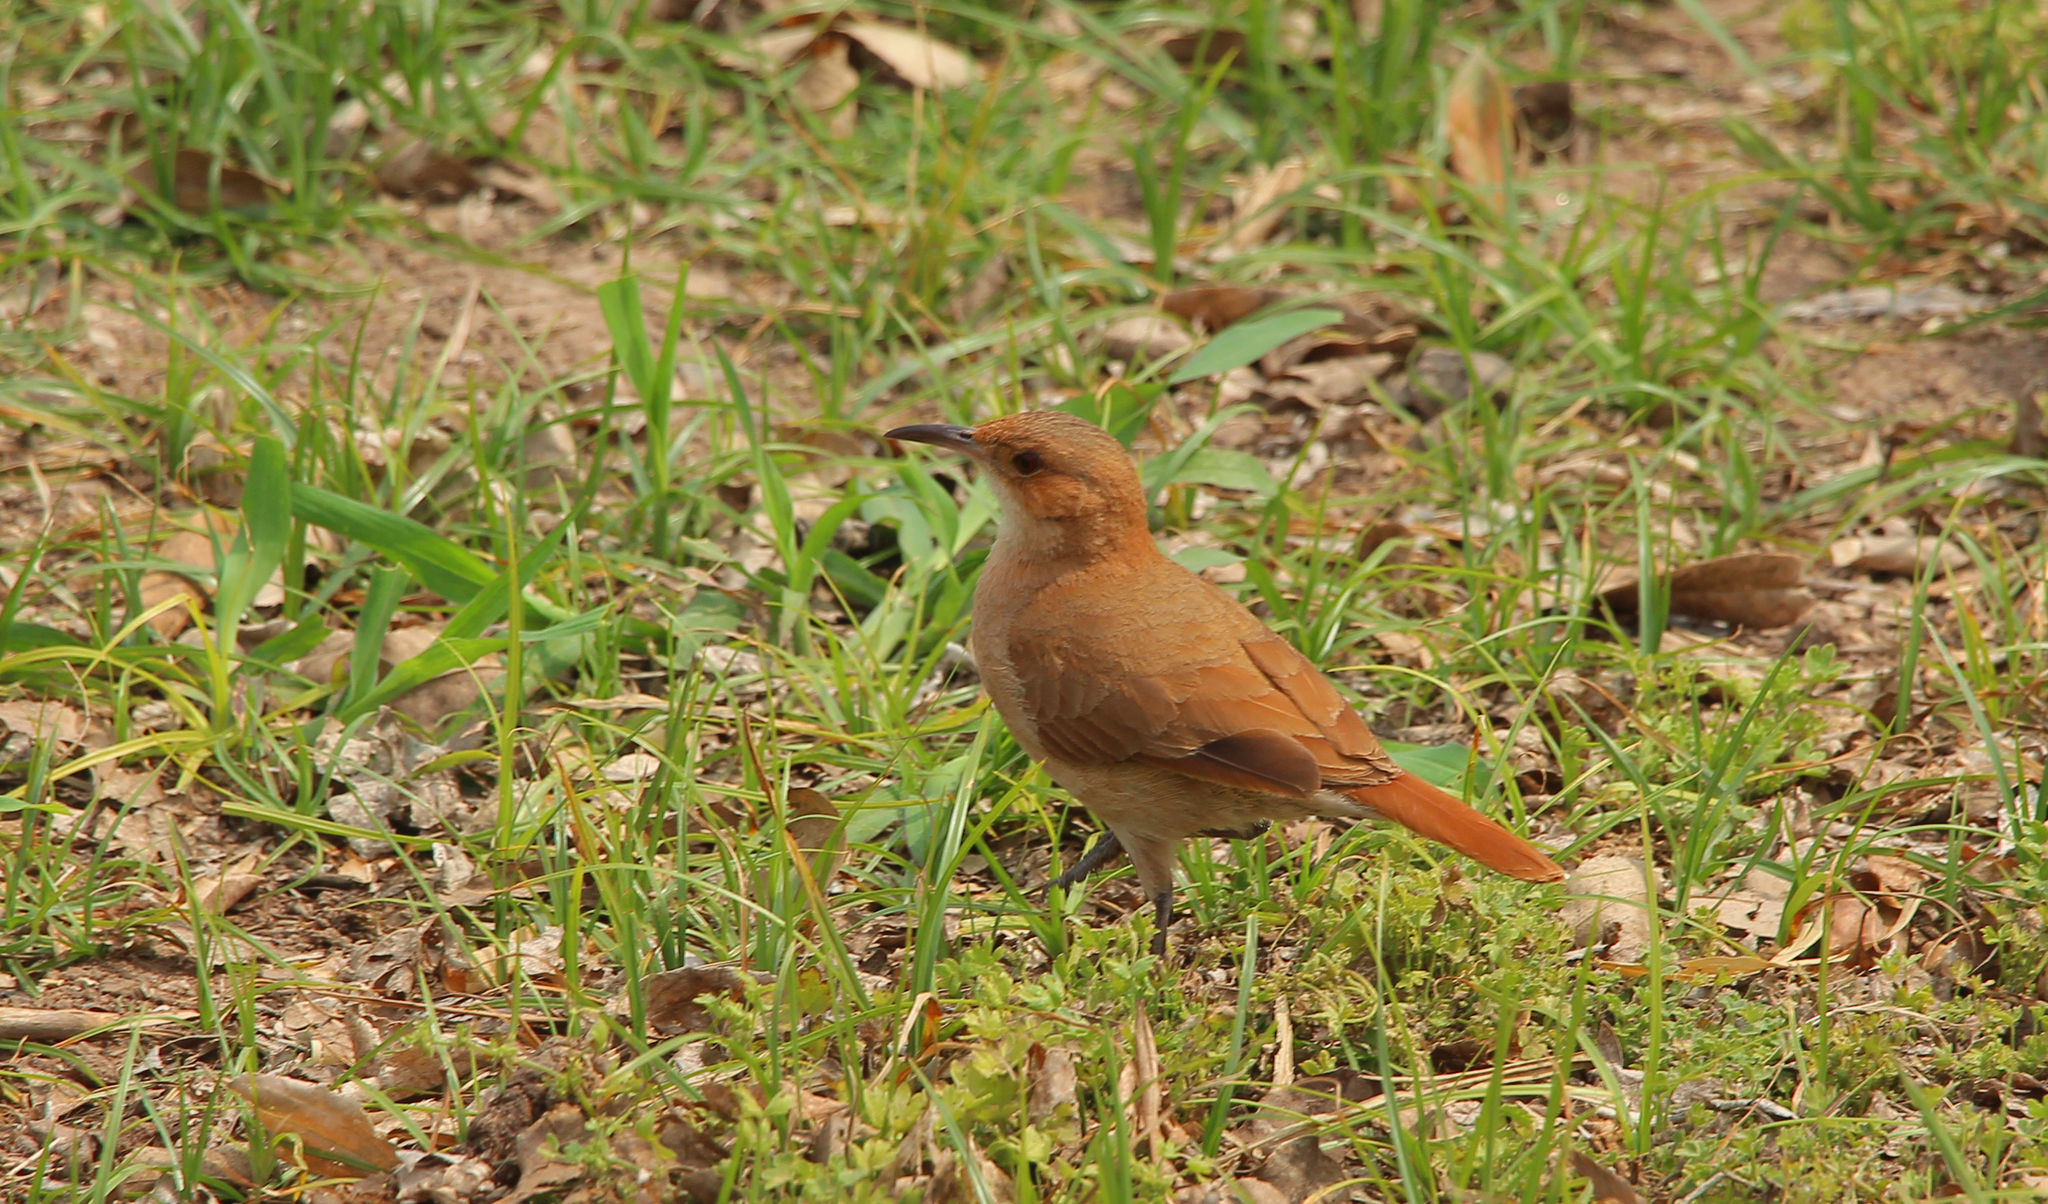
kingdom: Animalia
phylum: Chordata
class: Aves
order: Passeriformes
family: Furnariidae
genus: Furnarius
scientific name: Furnarius rufus
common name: Rufous hornero
